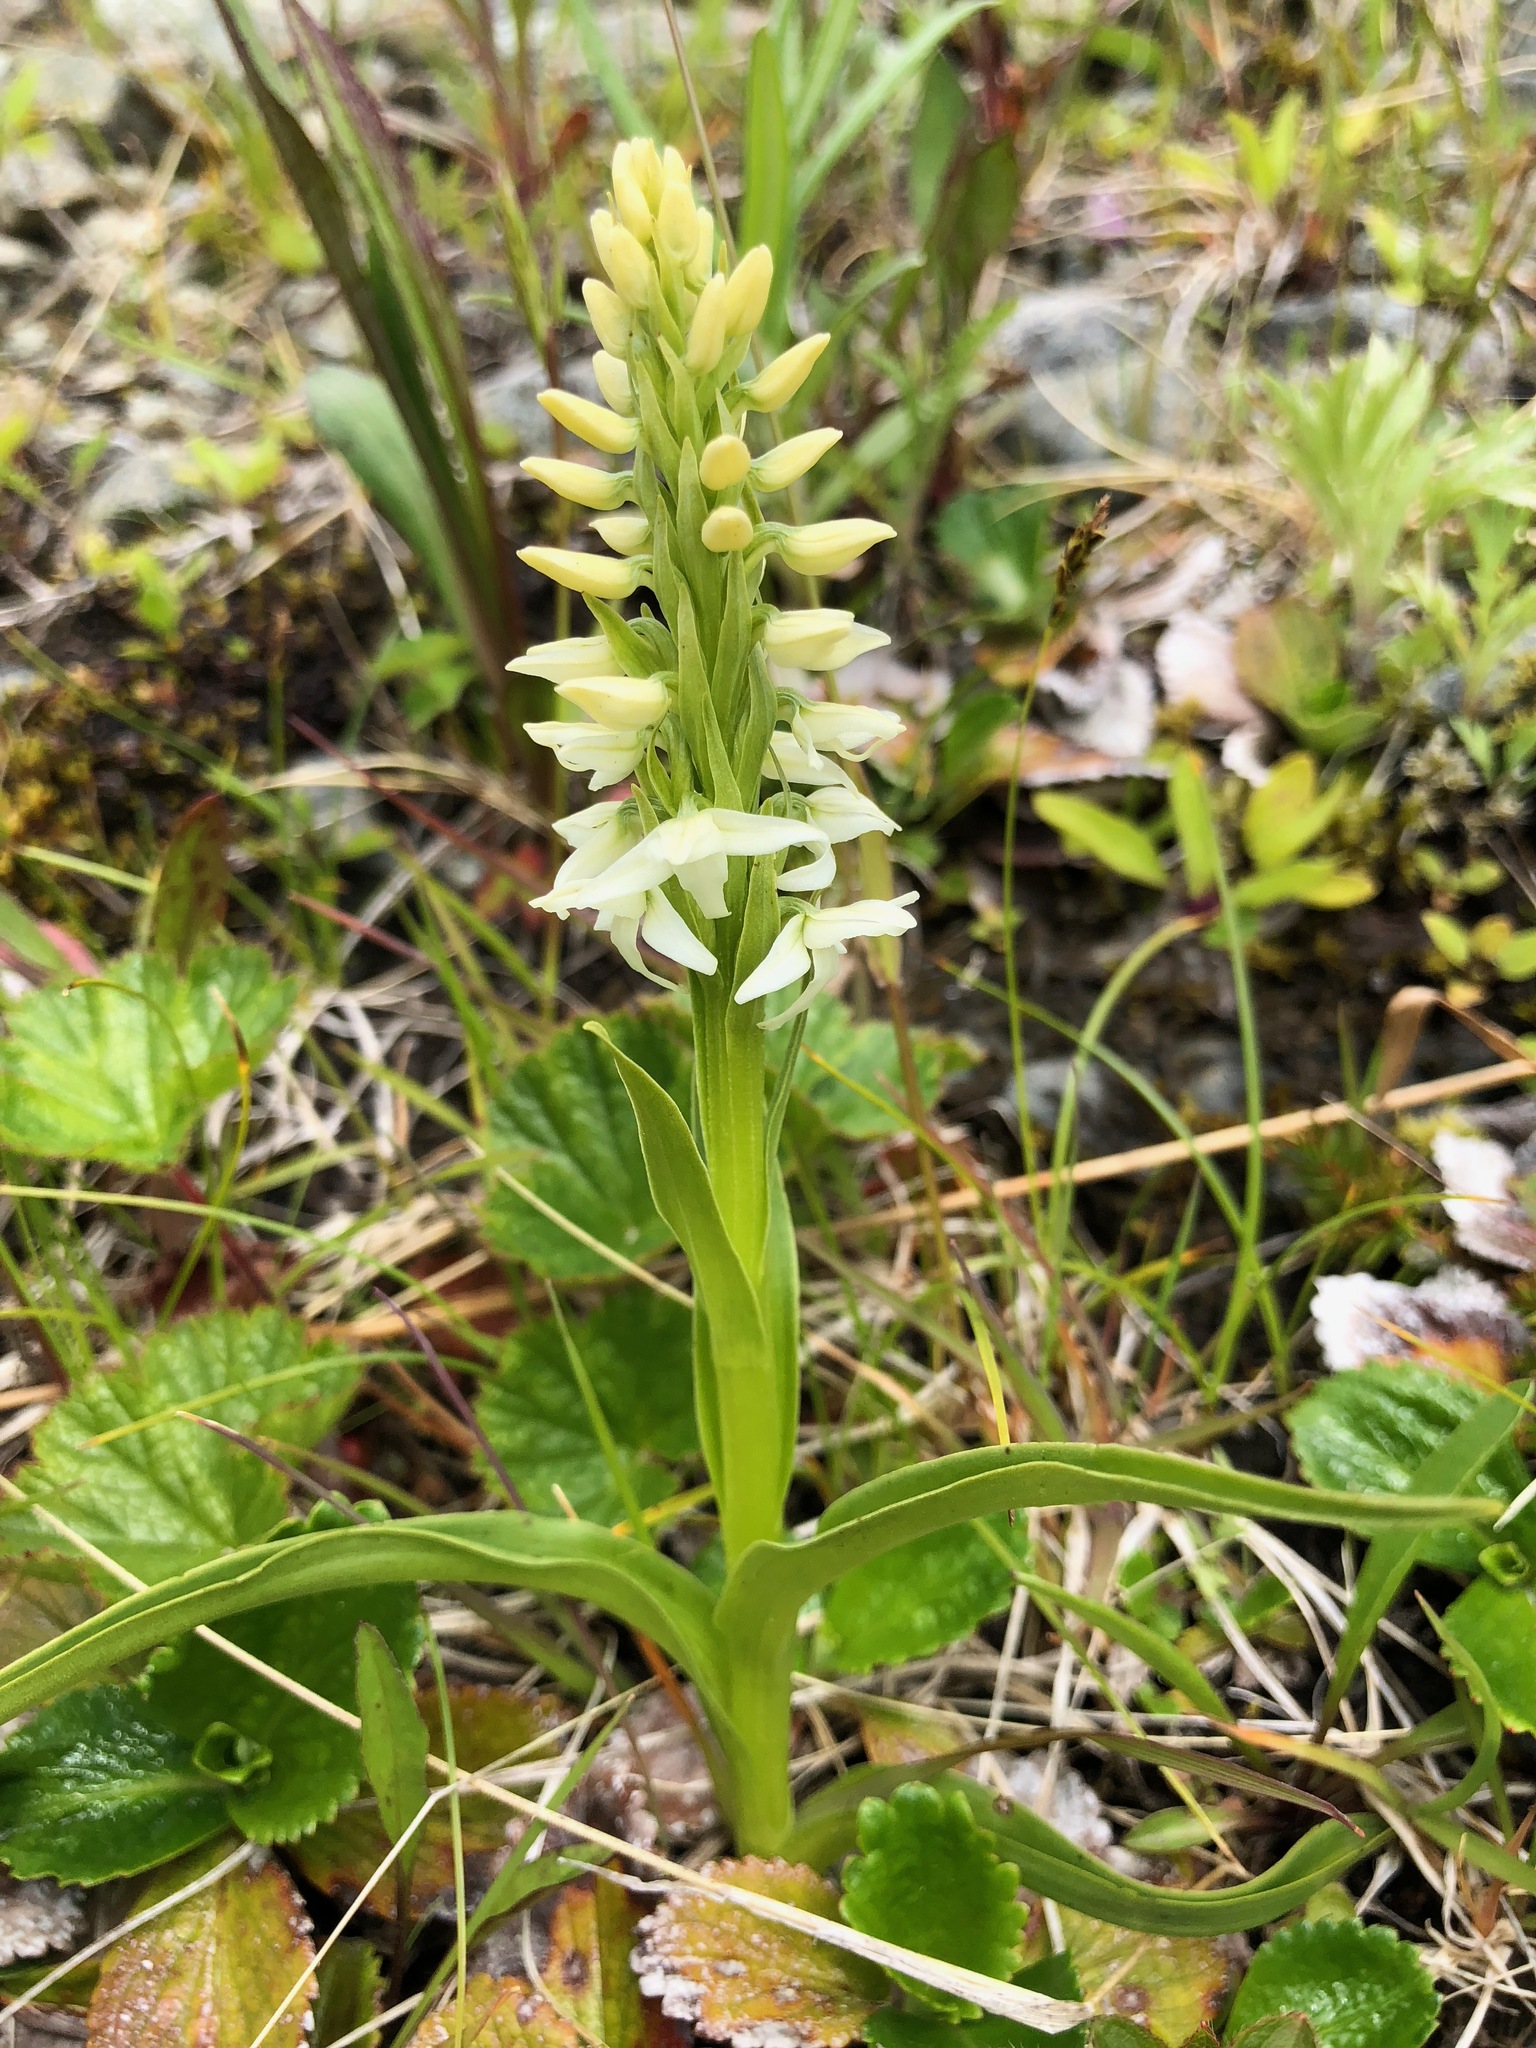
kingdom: Plantae
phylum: Tracheophyta
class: Liliopsida
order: Asparagales
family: Orchidaceae
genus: Platanthera
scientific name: Platanthera dilatata
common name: Bog candles
